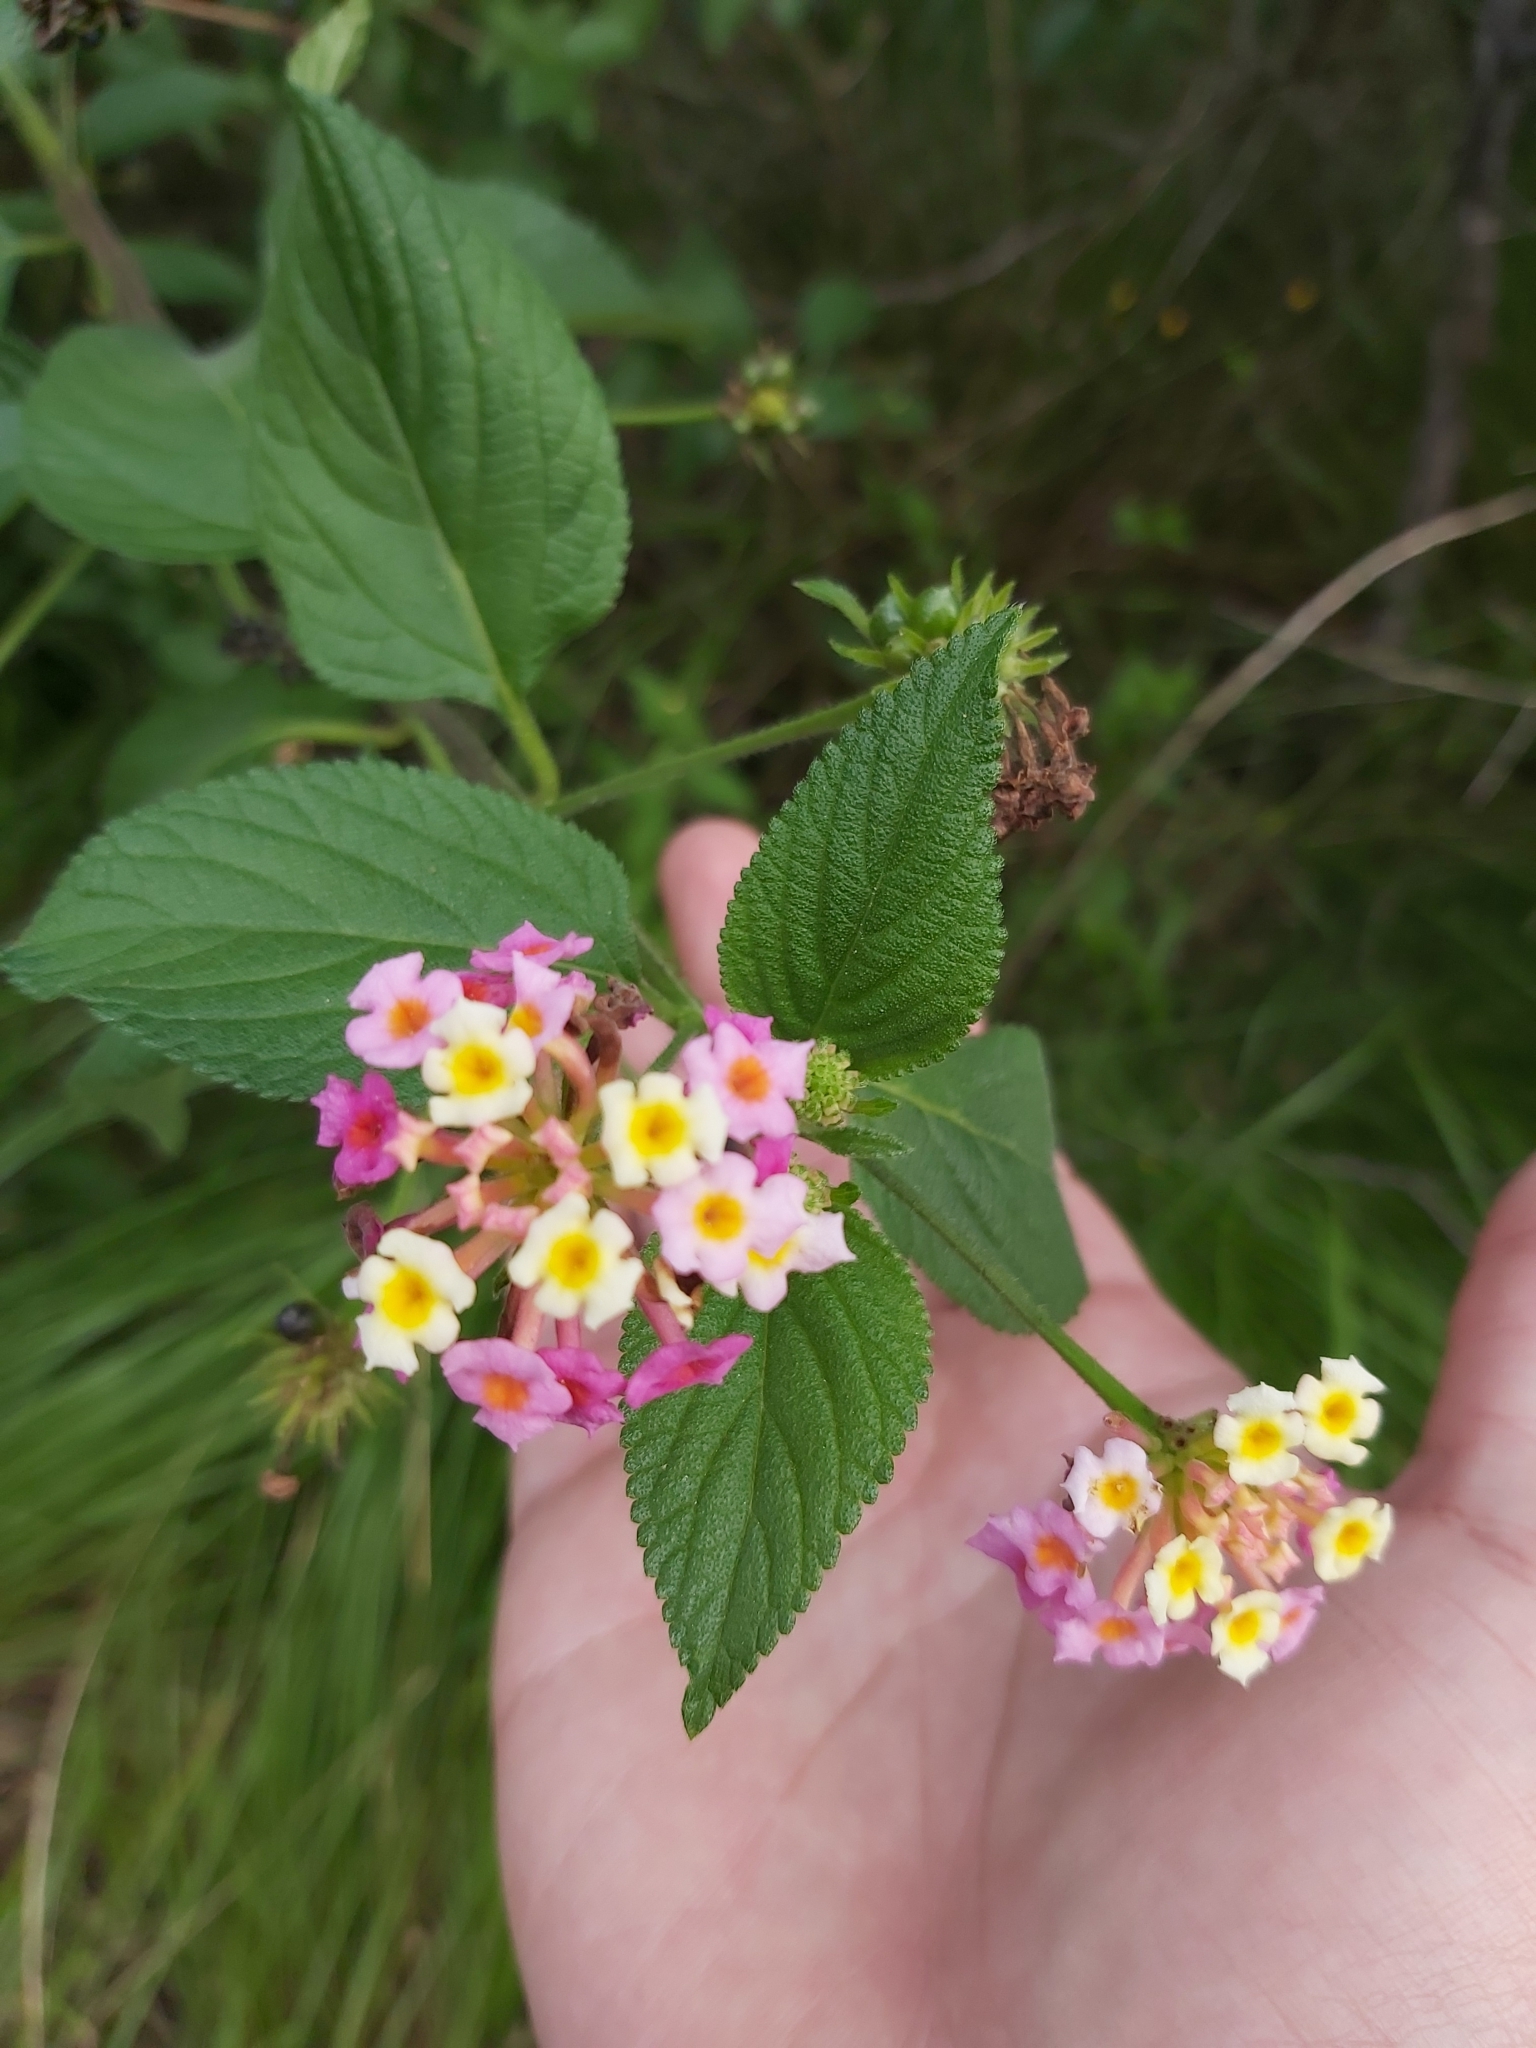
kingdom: Plantae
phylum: Tracheophyta
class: Magnoliopsida
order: Lamiales
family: Verbenaceae
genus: Lantana
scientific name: Lantana camara
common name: Lantana
